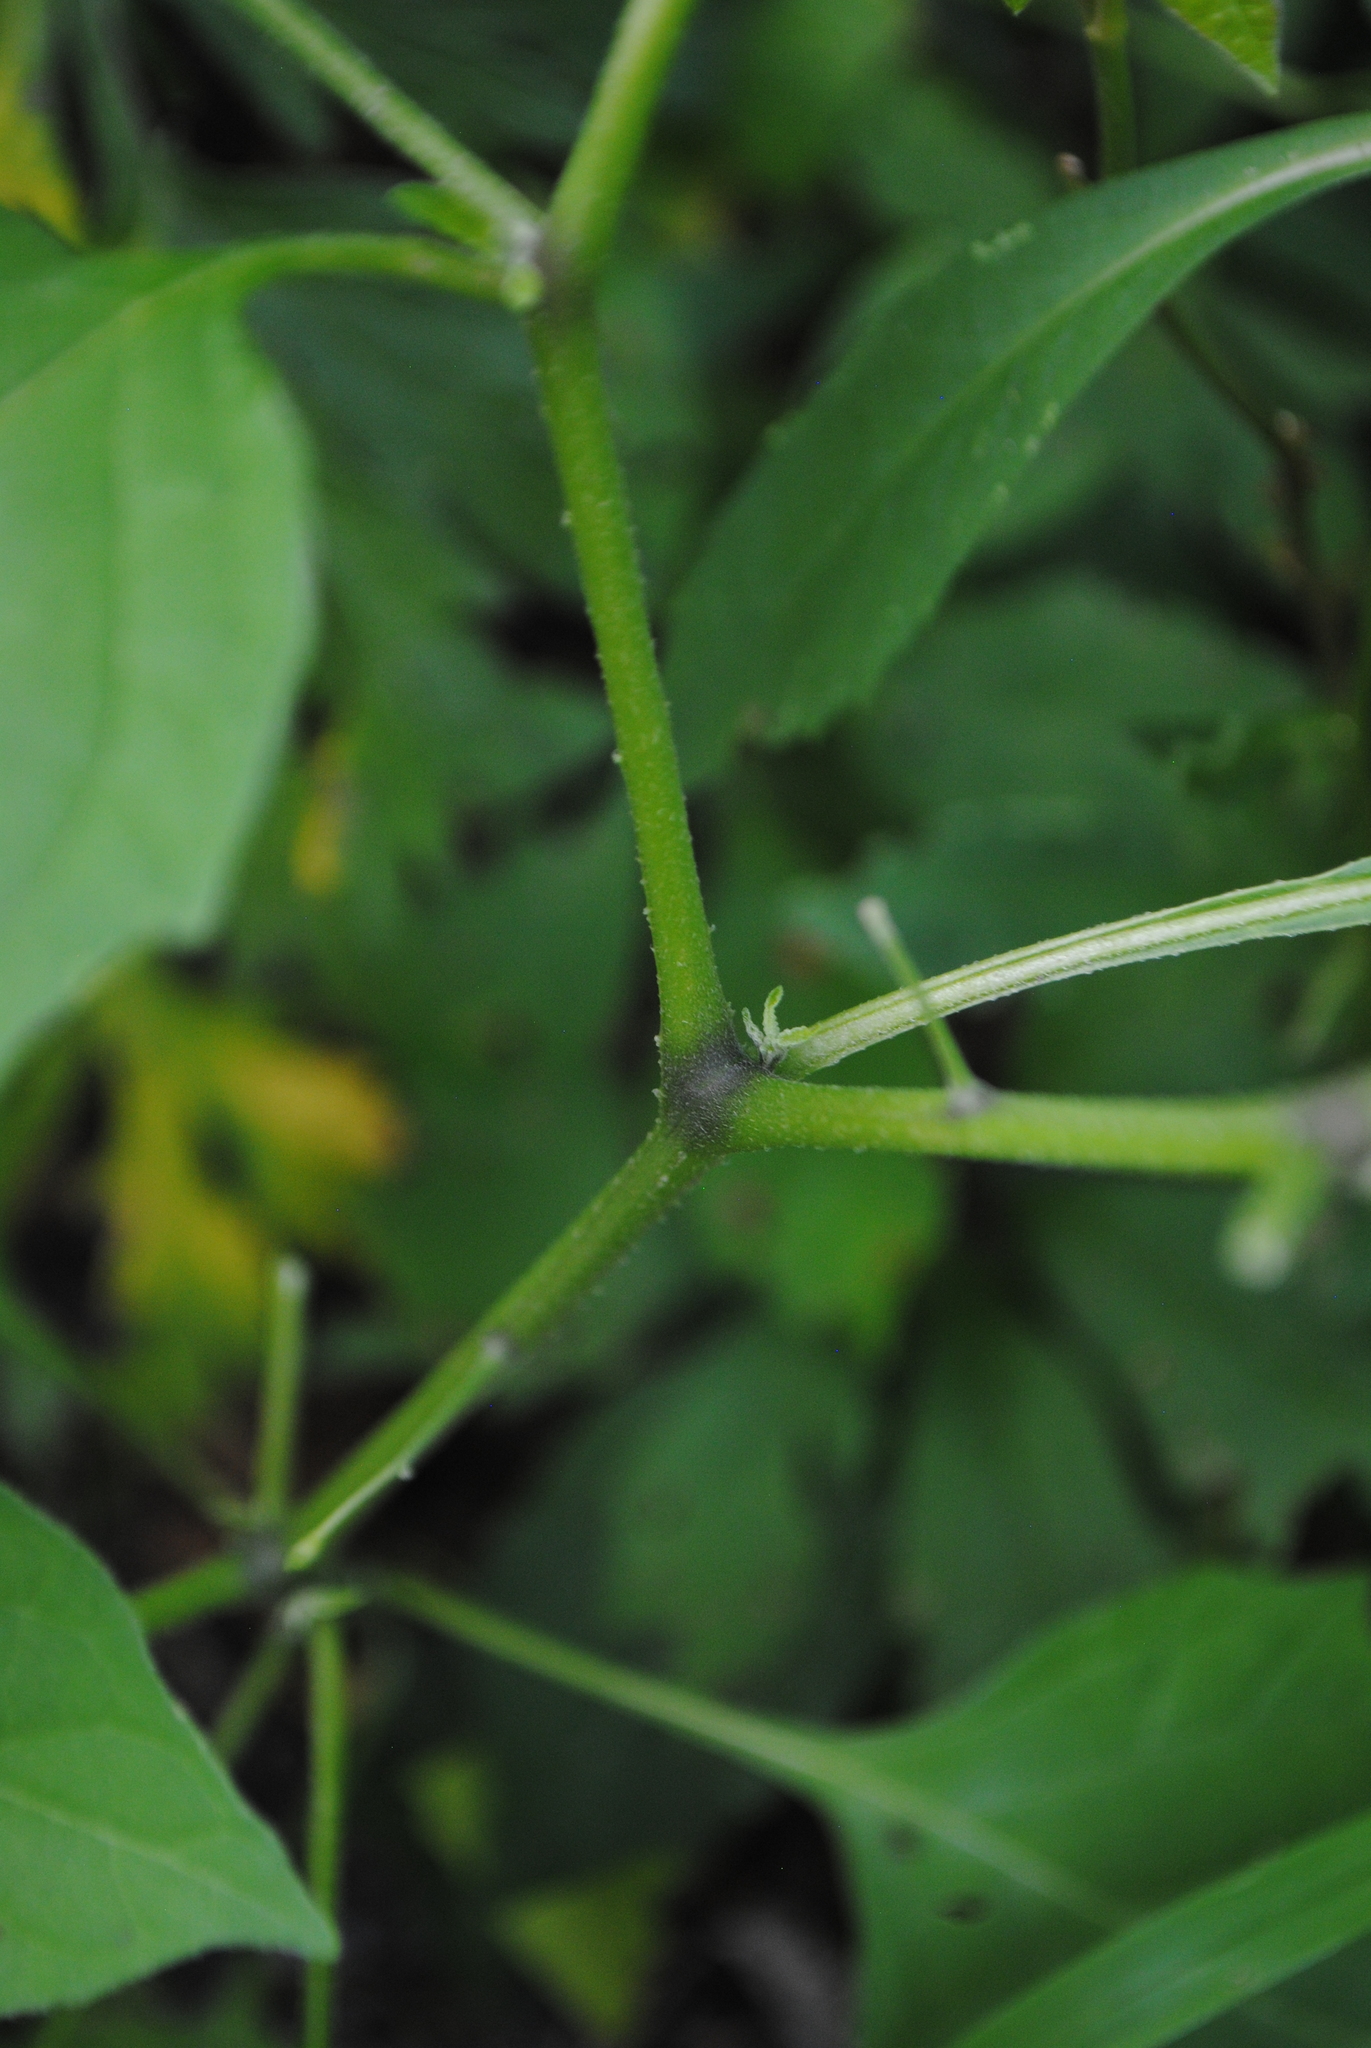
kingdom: Plantae
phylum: Tracheophyta
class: Magnoliopsida
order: Solanales
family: Solanaceae
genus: Solanum
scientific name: Solanum emulans
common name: Eastern black nightshade
